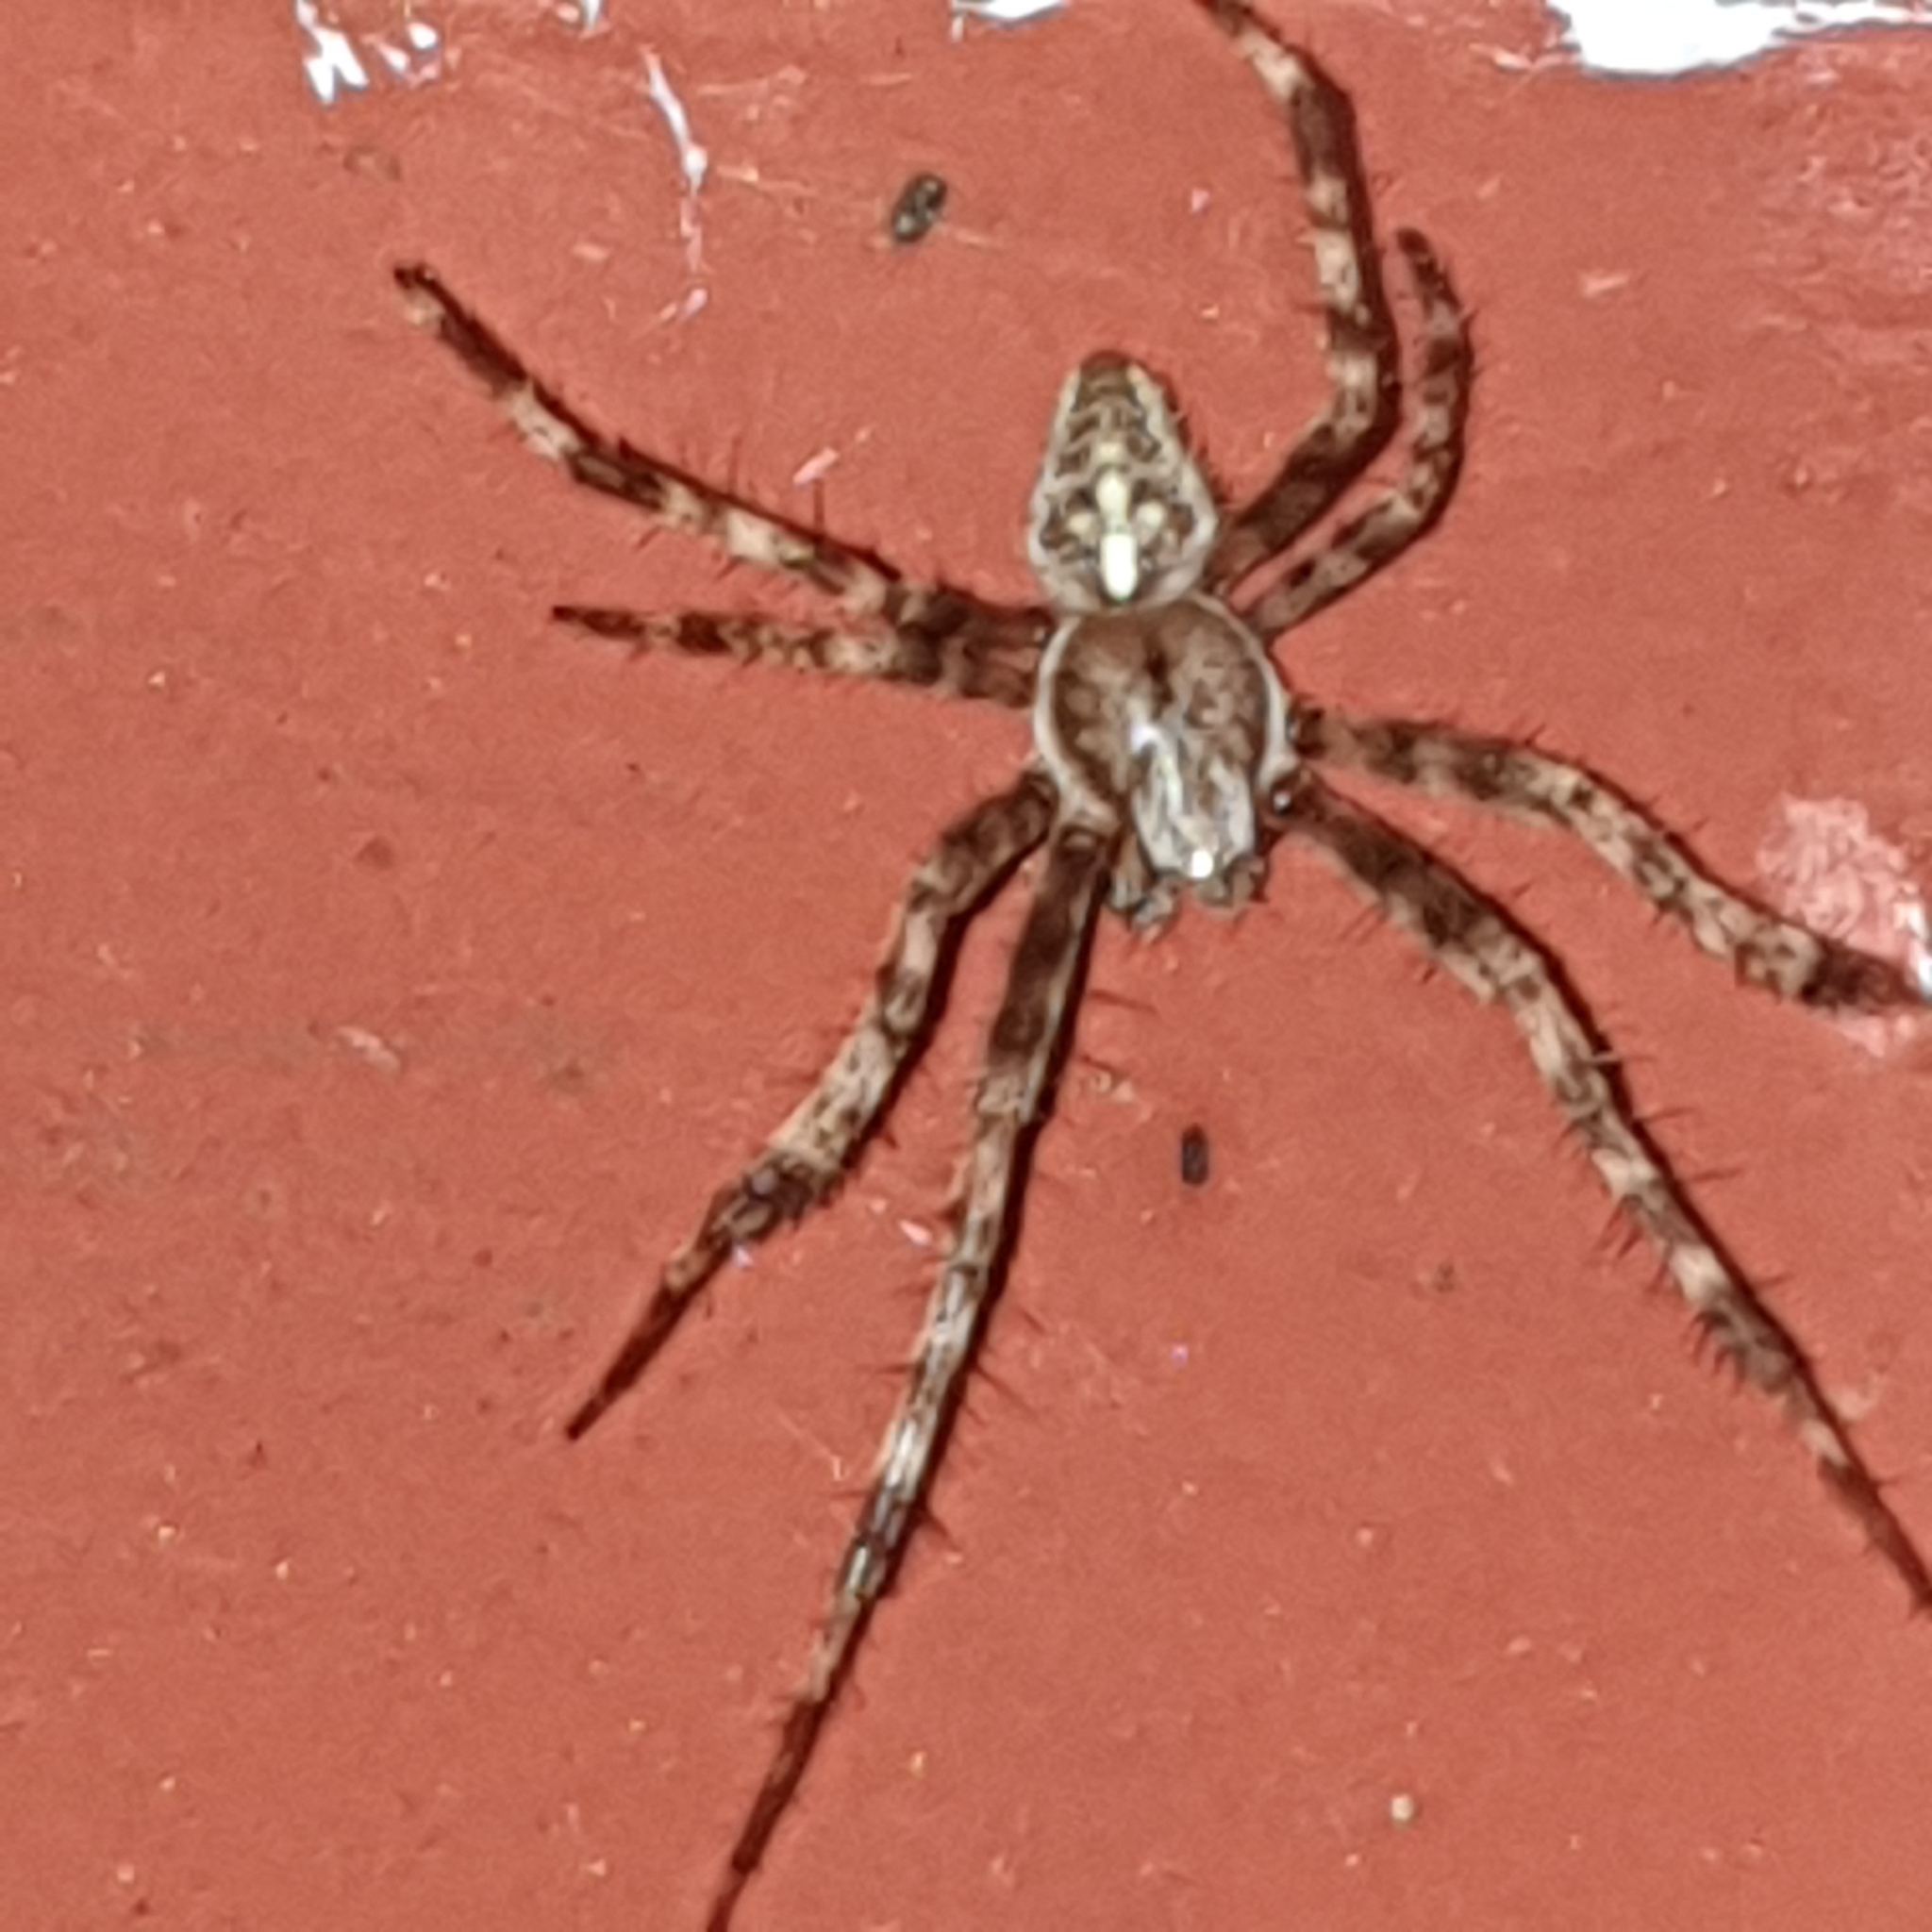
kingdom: Animalia
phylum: Arthropoda
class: Arachnida
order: Araneae
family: Araneidae
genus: Araneus
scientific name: Araneus diadematus
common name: Cross orbweaver
